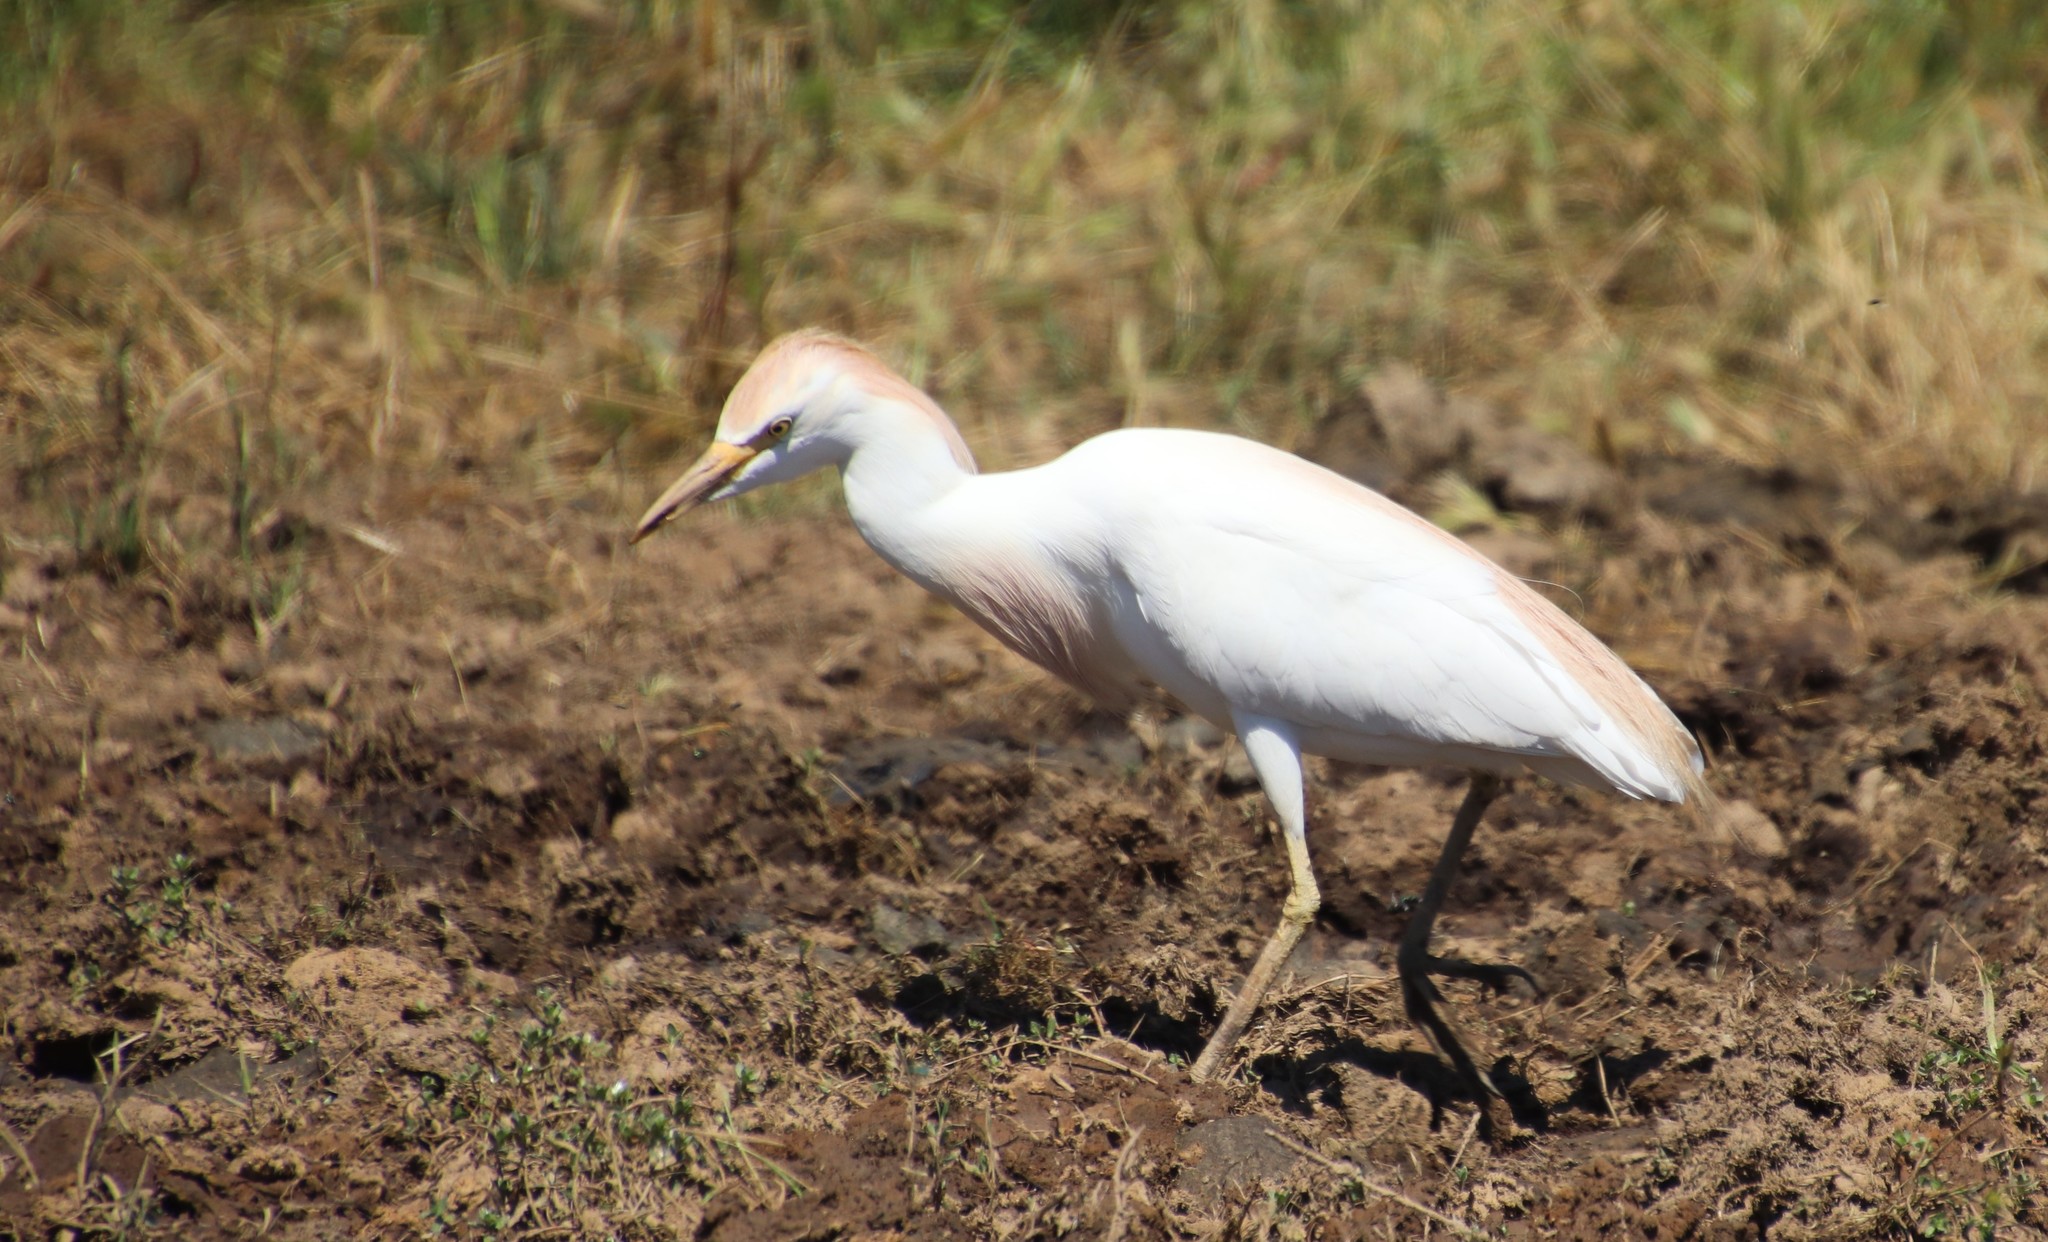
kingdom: Animalia
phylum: Chordata
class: Aves
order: Pelecaniformes
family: Ardeidae
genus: Bubulcus
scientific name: Bubulcus ibis
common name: Cattle egret
